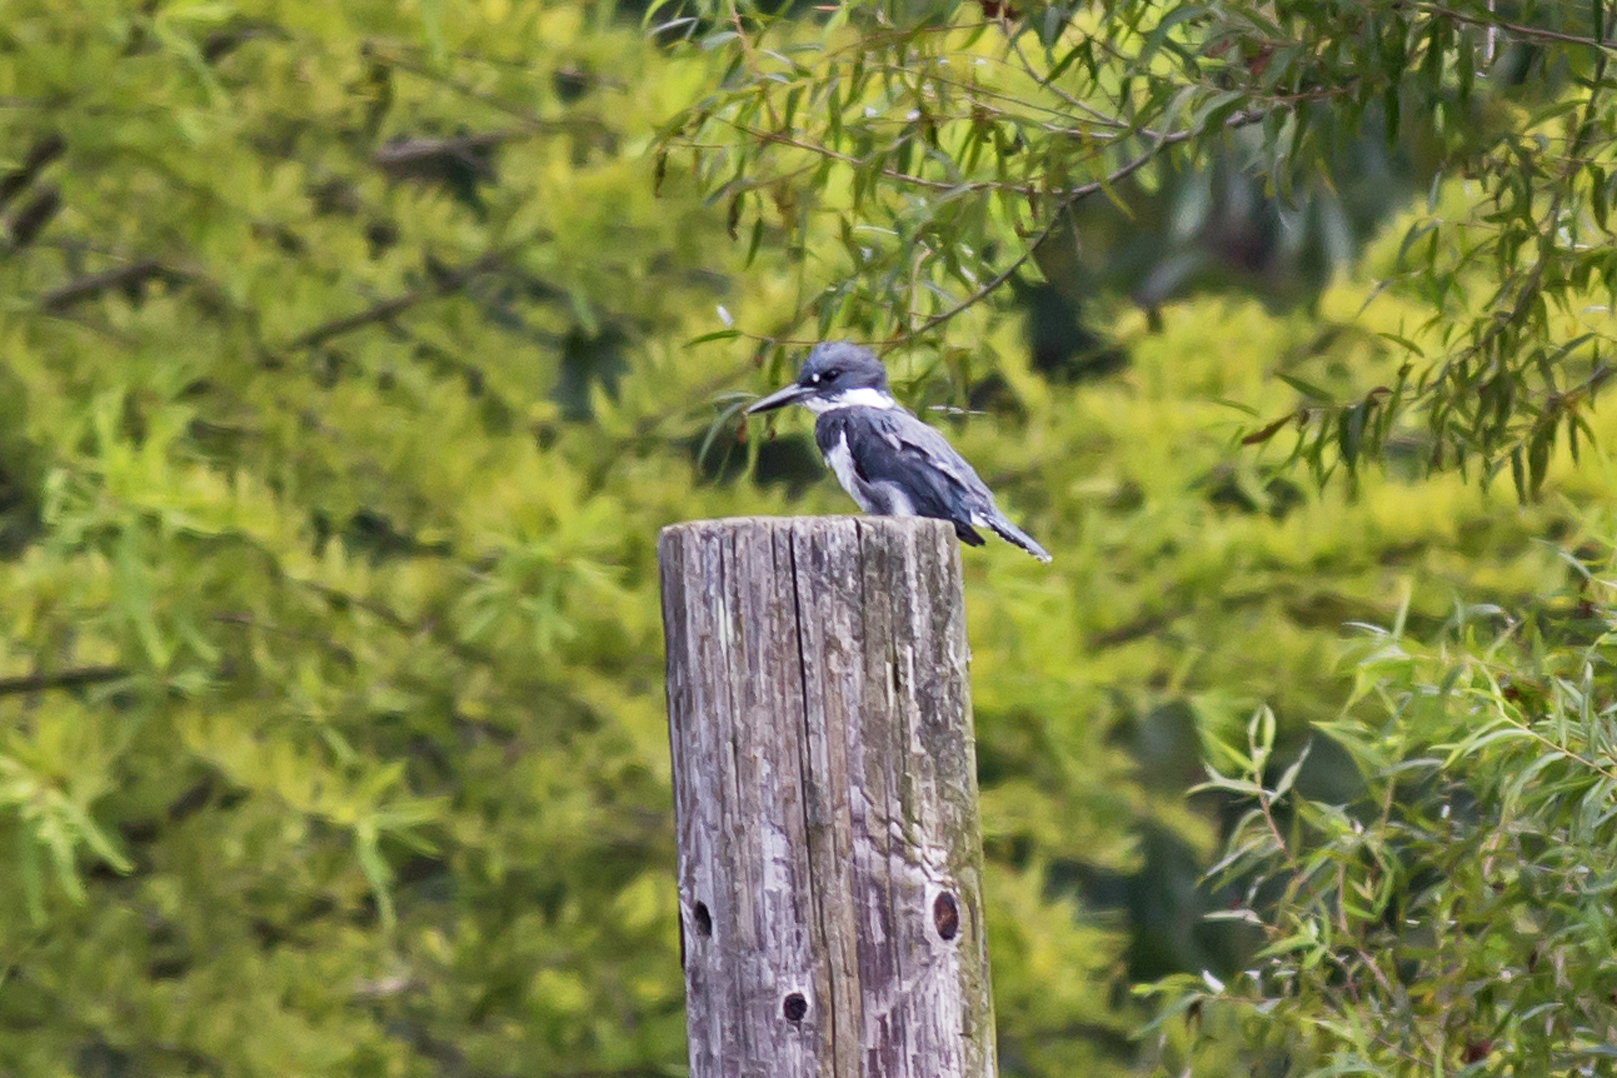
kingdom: Animalia
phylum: Chordata
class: Aves
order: Coraciiformes
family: Alcedinidae
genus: Megaceryle
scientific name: Megaceryle alcyon
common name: Belted kingfisher
